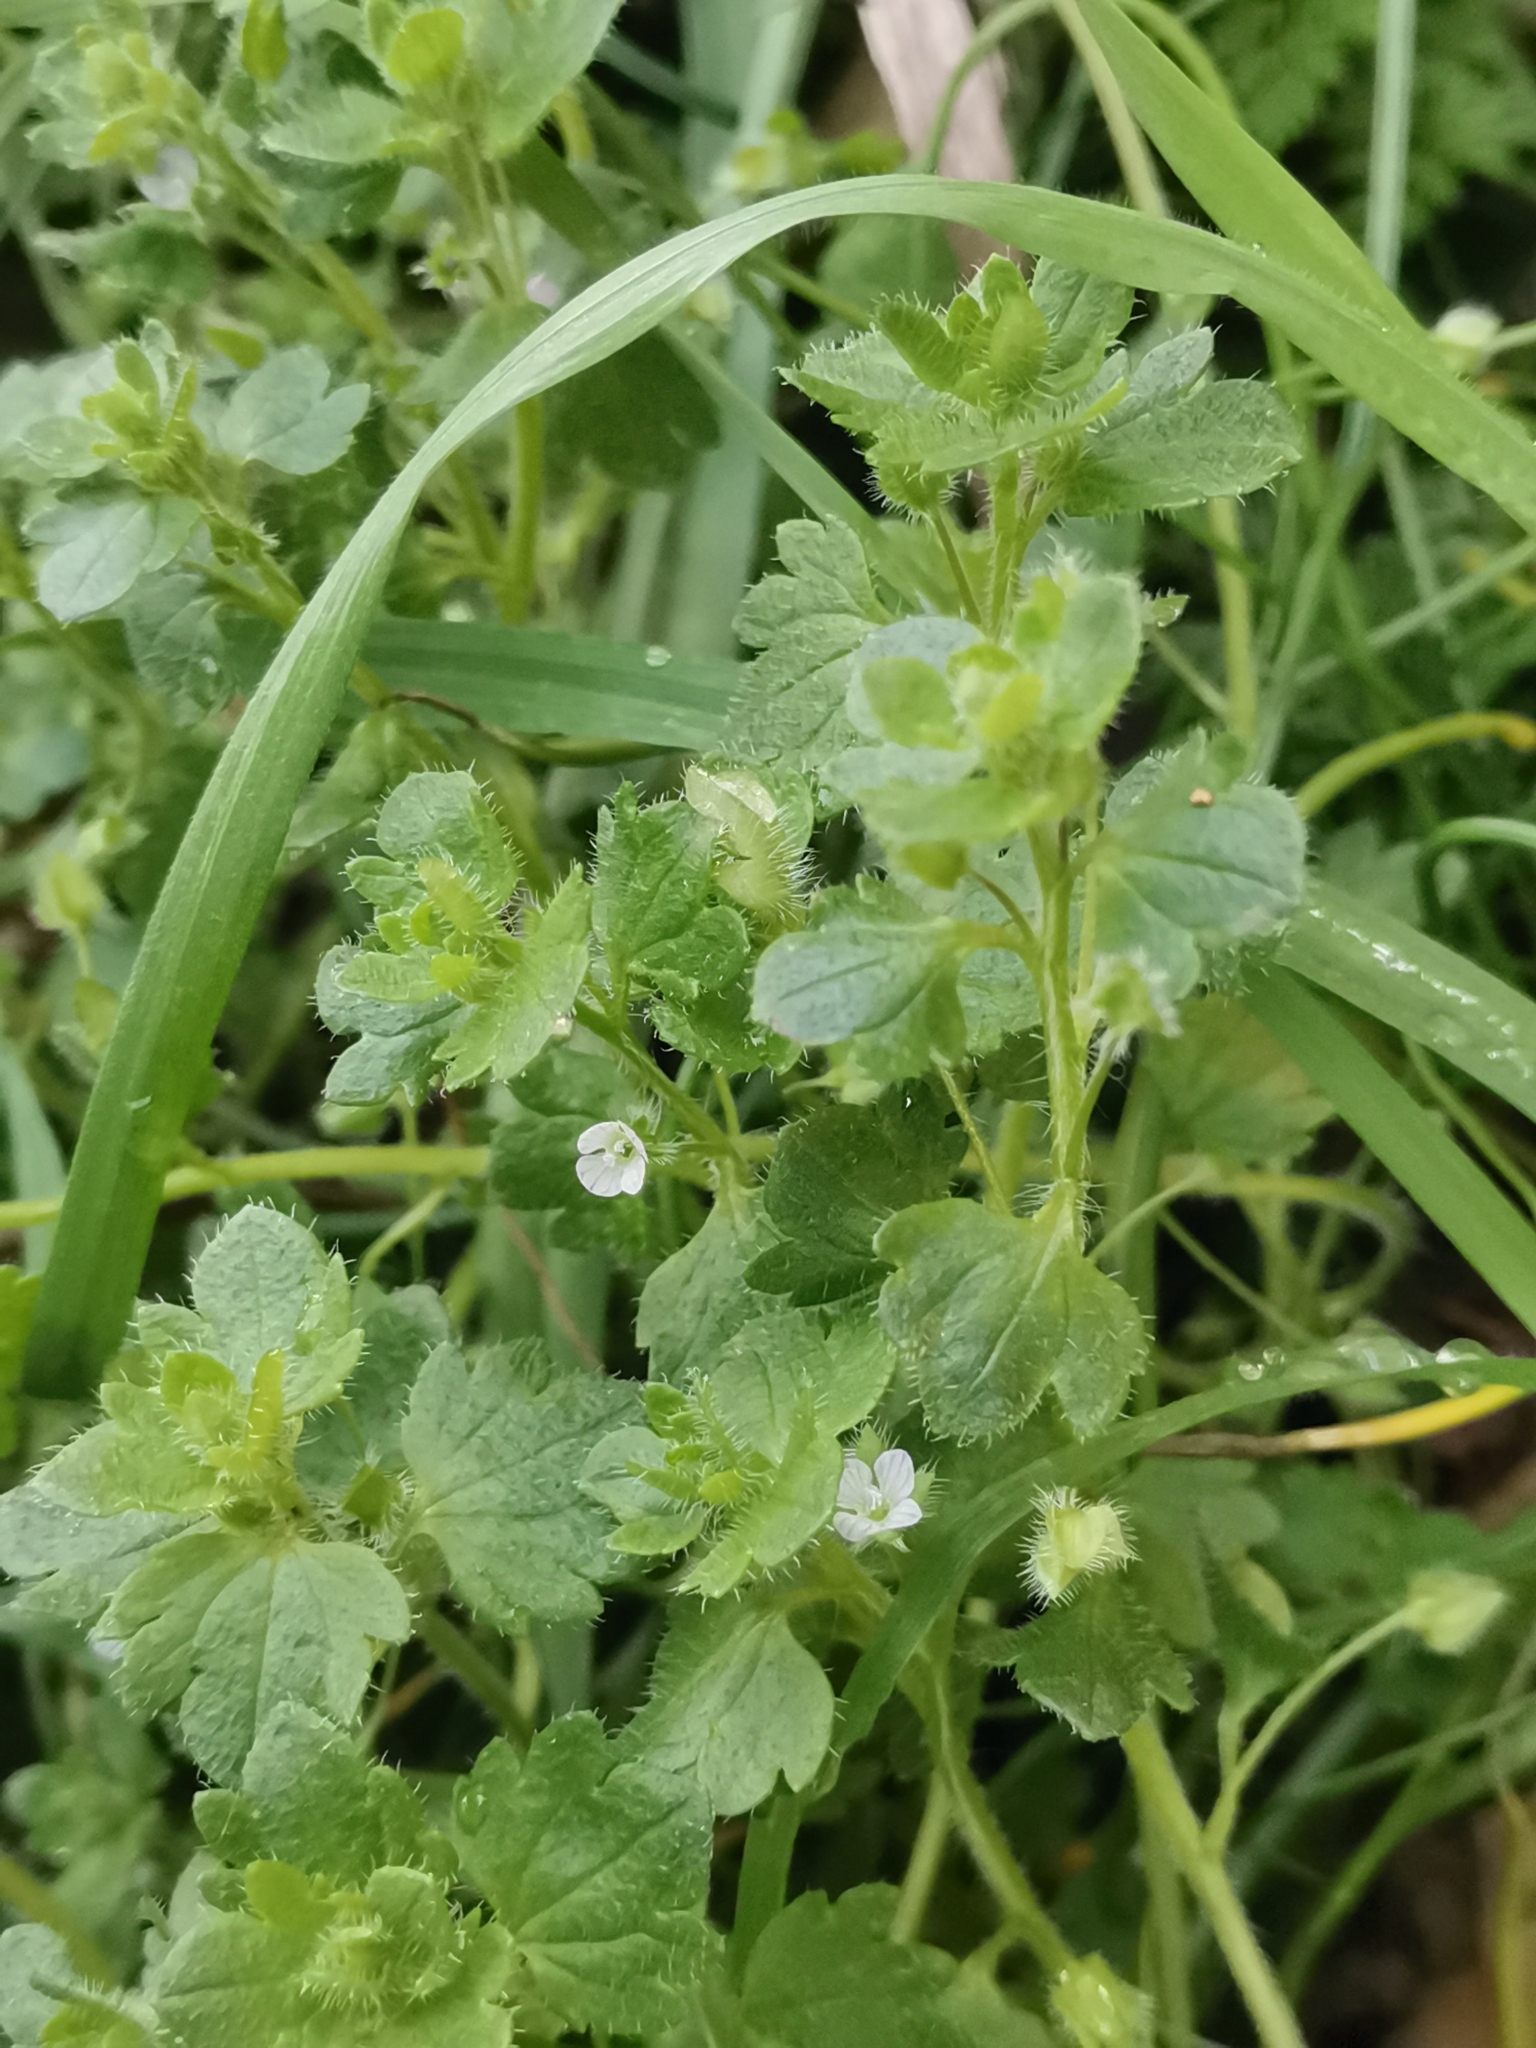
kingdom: Plantae
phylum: Tracheophyta
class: Magnoliopsida
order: Lamiales
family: Plantaginaceae
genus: Veronica
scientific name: Veronica sublobata
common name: False ivy-leaved speedwell
